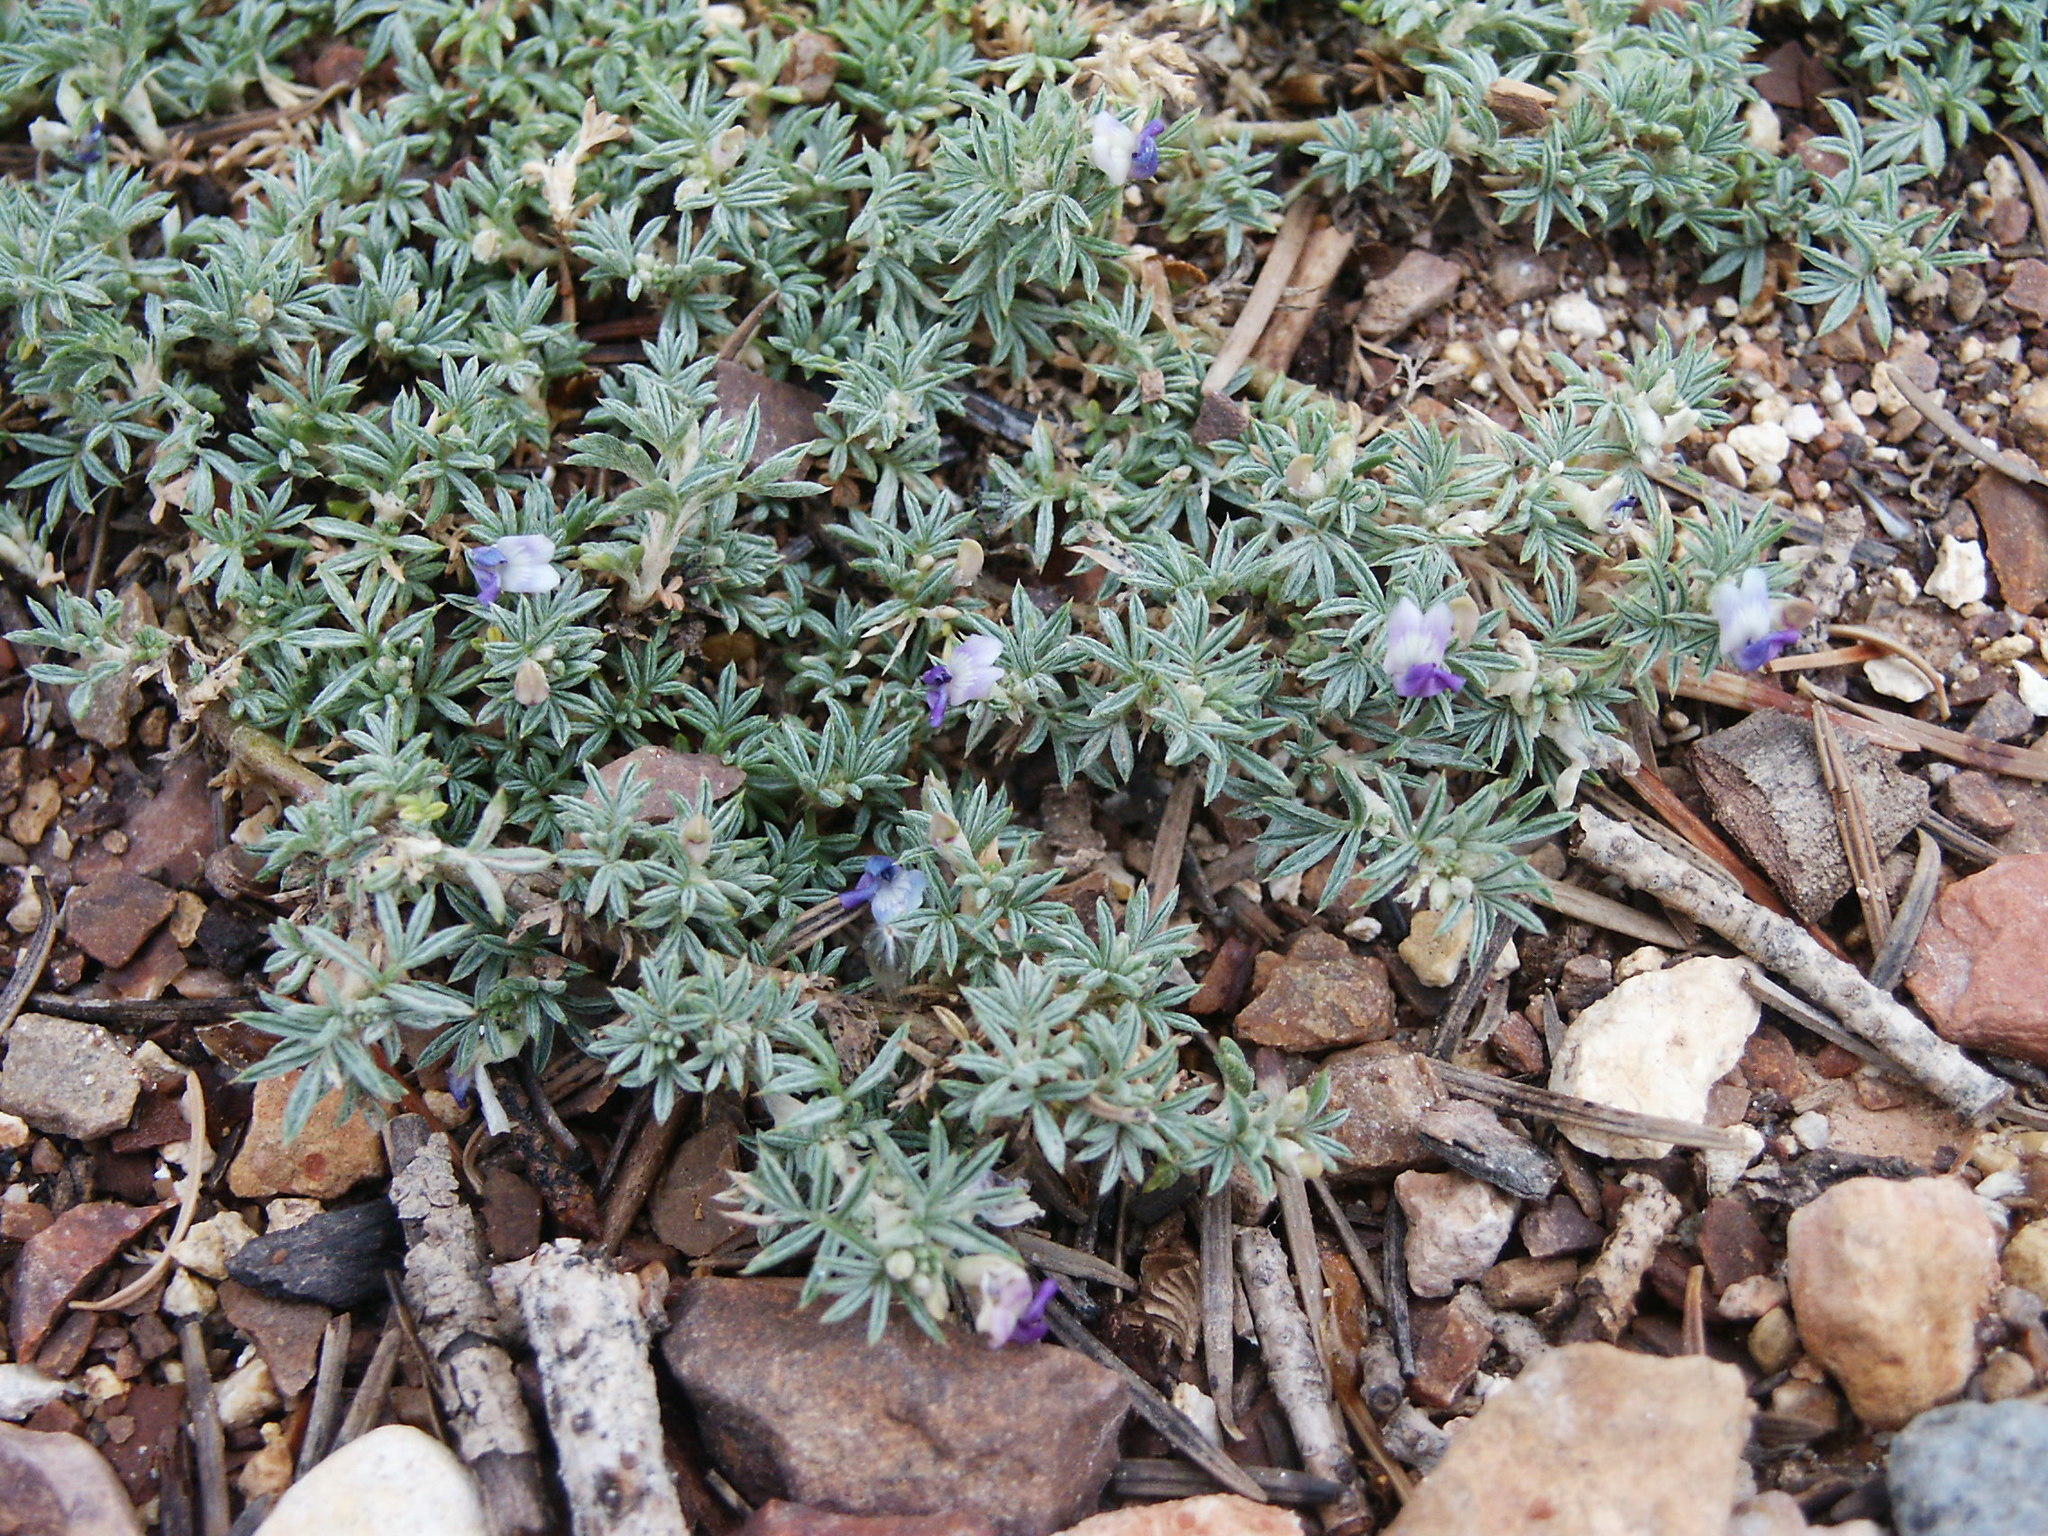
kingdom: Plantae
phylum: Tracheophyta
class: Magnoliopsida
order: Fabales
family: Fabaceae
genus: Astragalus
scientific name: Astragalus kentrophyta
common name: Prickly milk-vetch
